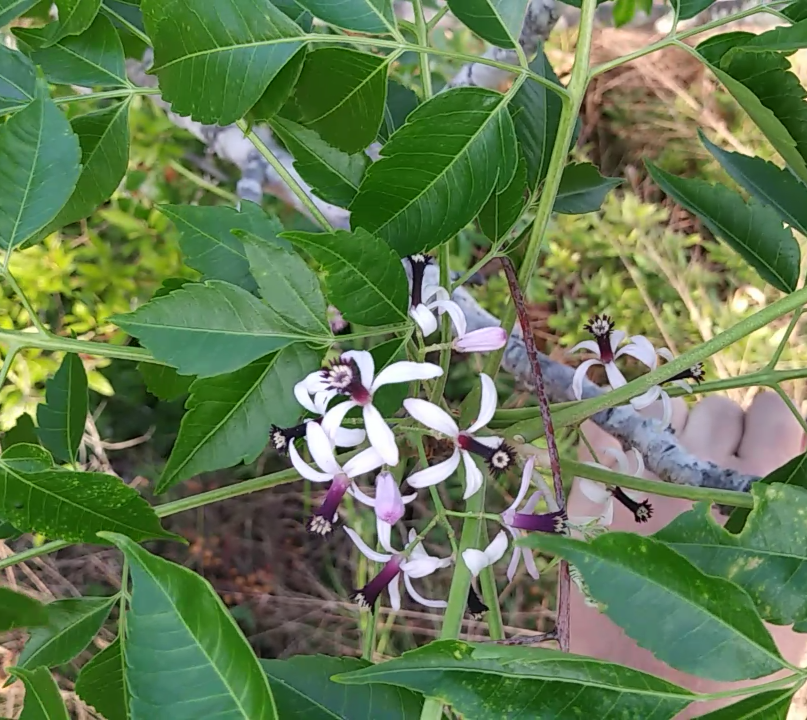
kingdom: Plantae
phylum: Tracheophyta
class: Magnoliopsida
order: Sapindales
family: Meliaceae
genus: Melia
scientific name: Melia azedarach
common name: Chinaberrytree
